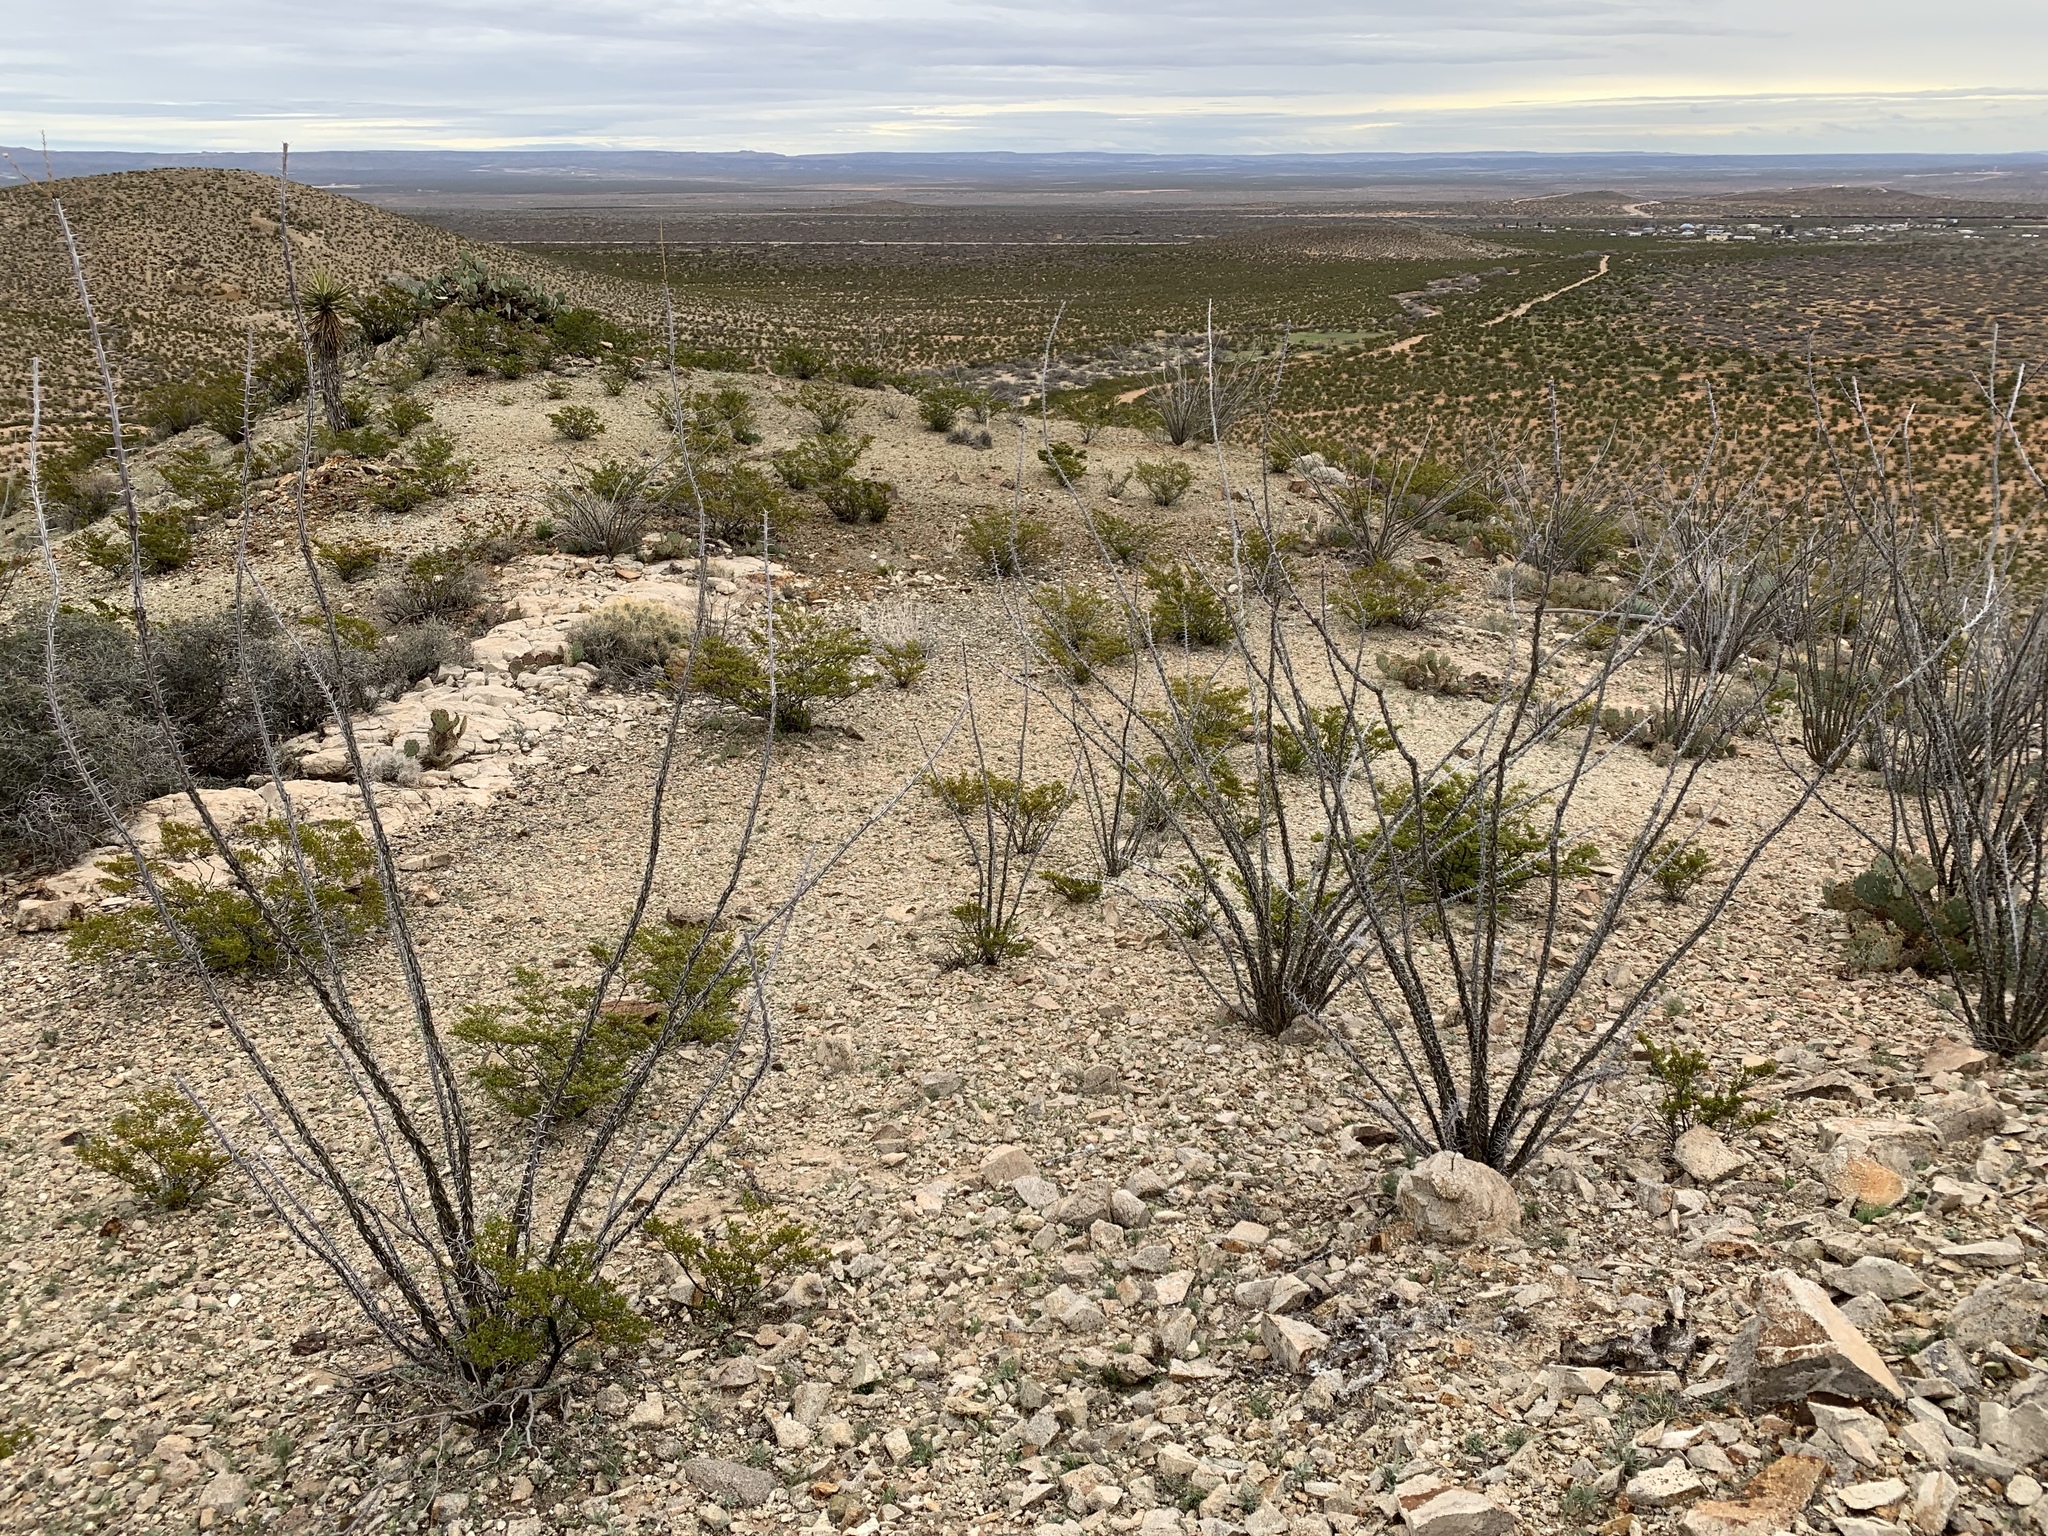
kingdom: Plantae
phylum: Tracheophyta
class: Magnoliopsida
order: Ericales
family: Fouquieriaceae
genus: Fouquieria
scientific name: Fouquieria splendens
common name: Vine-cactus
